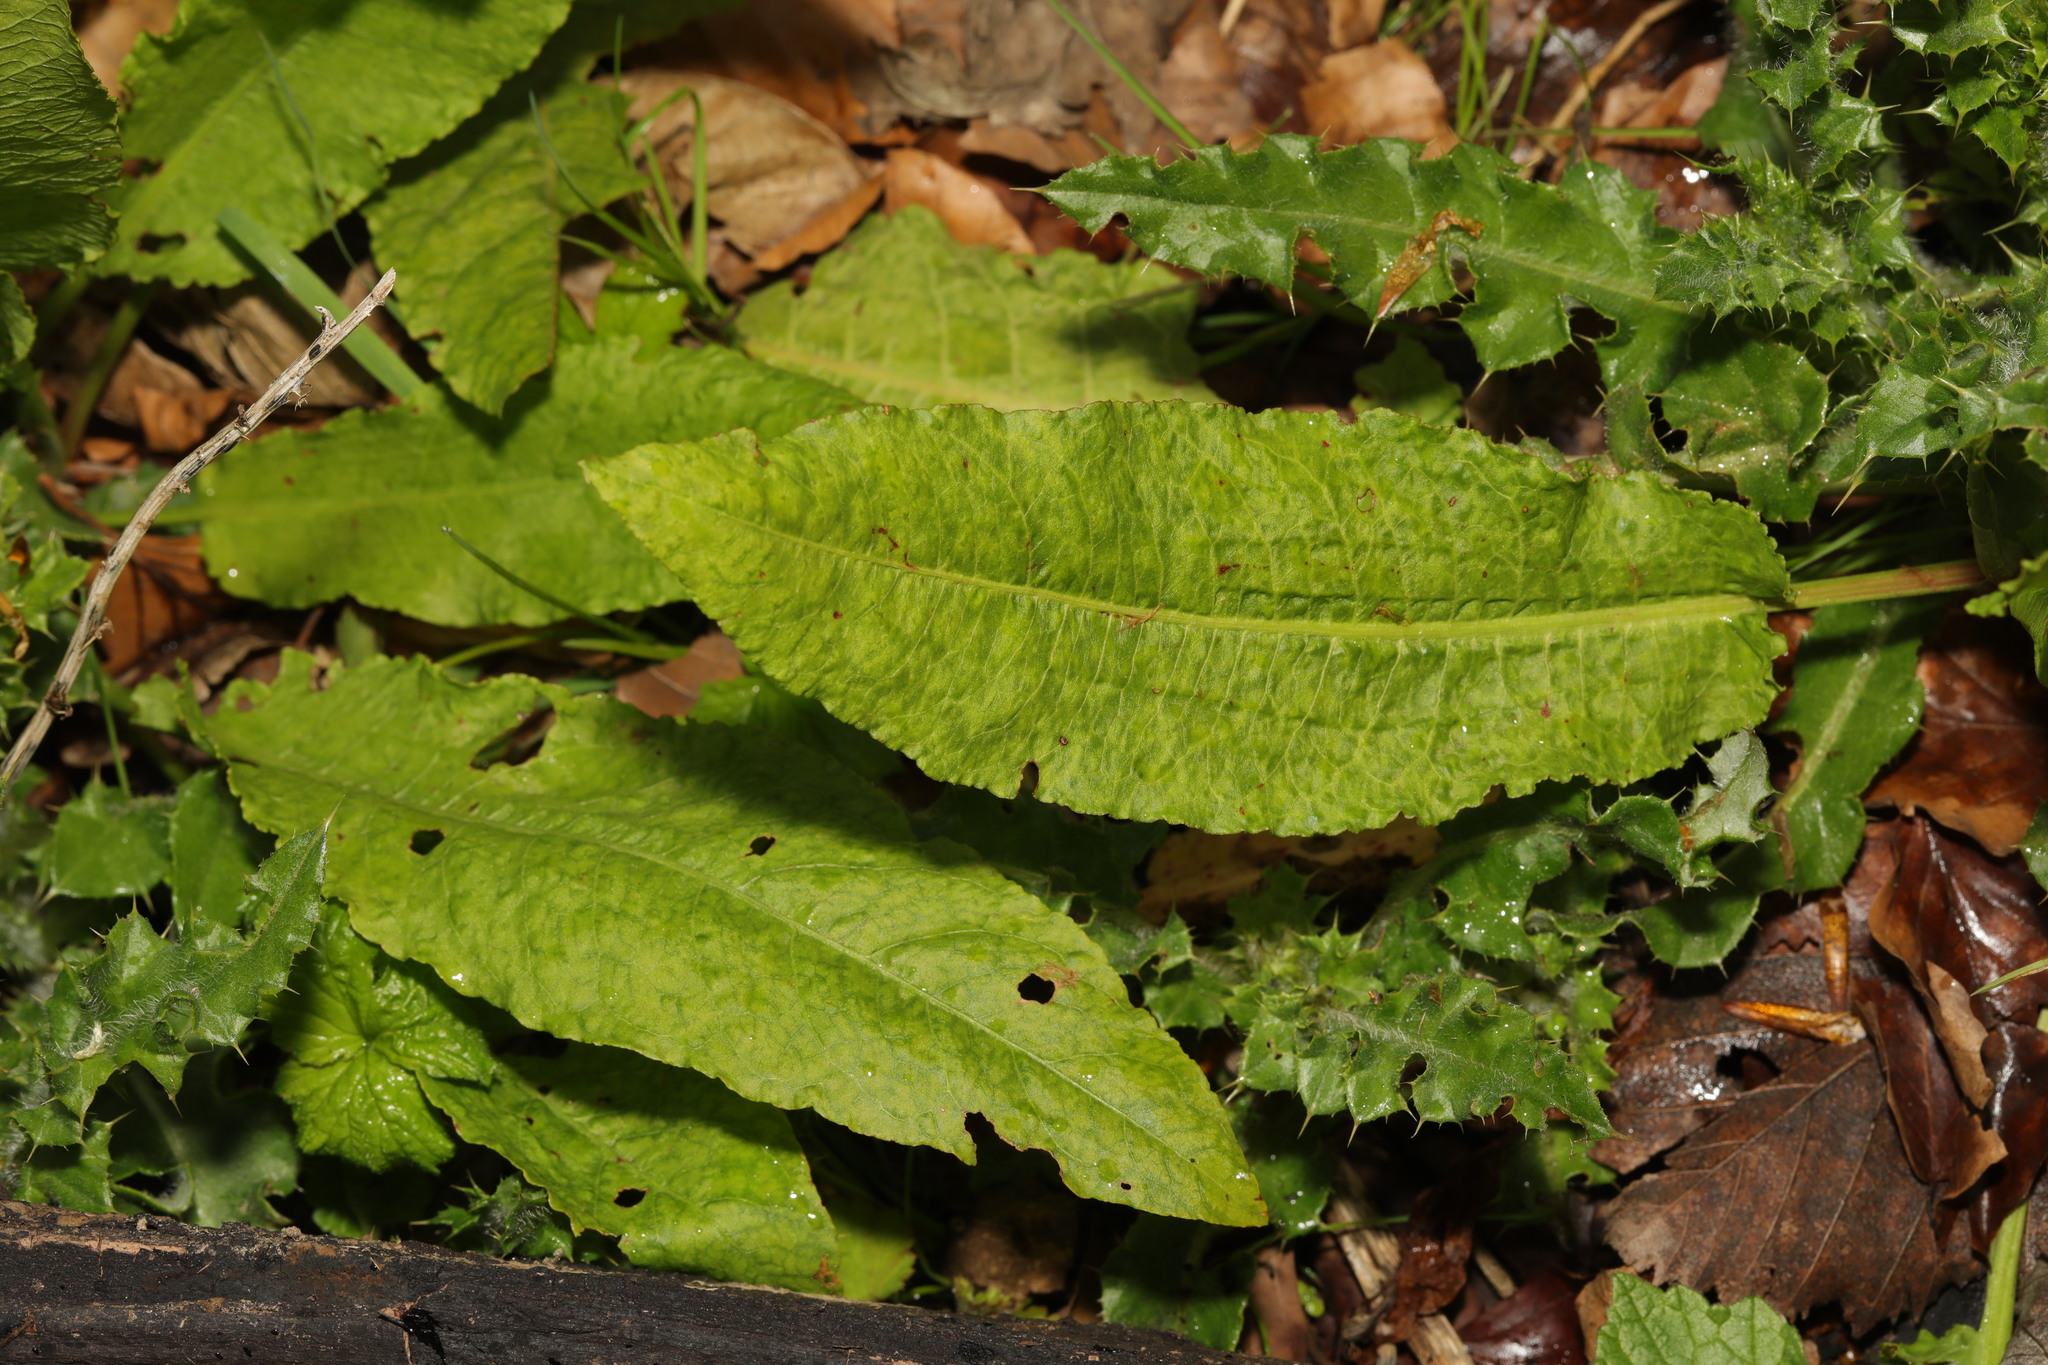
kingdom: Plantae
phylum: Tracheophyta
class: Magnoliopsida
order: Caryophyllales
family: Polygonaceae
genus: Rumex
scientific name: Rumex conglomeratus
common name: Clustered dock
